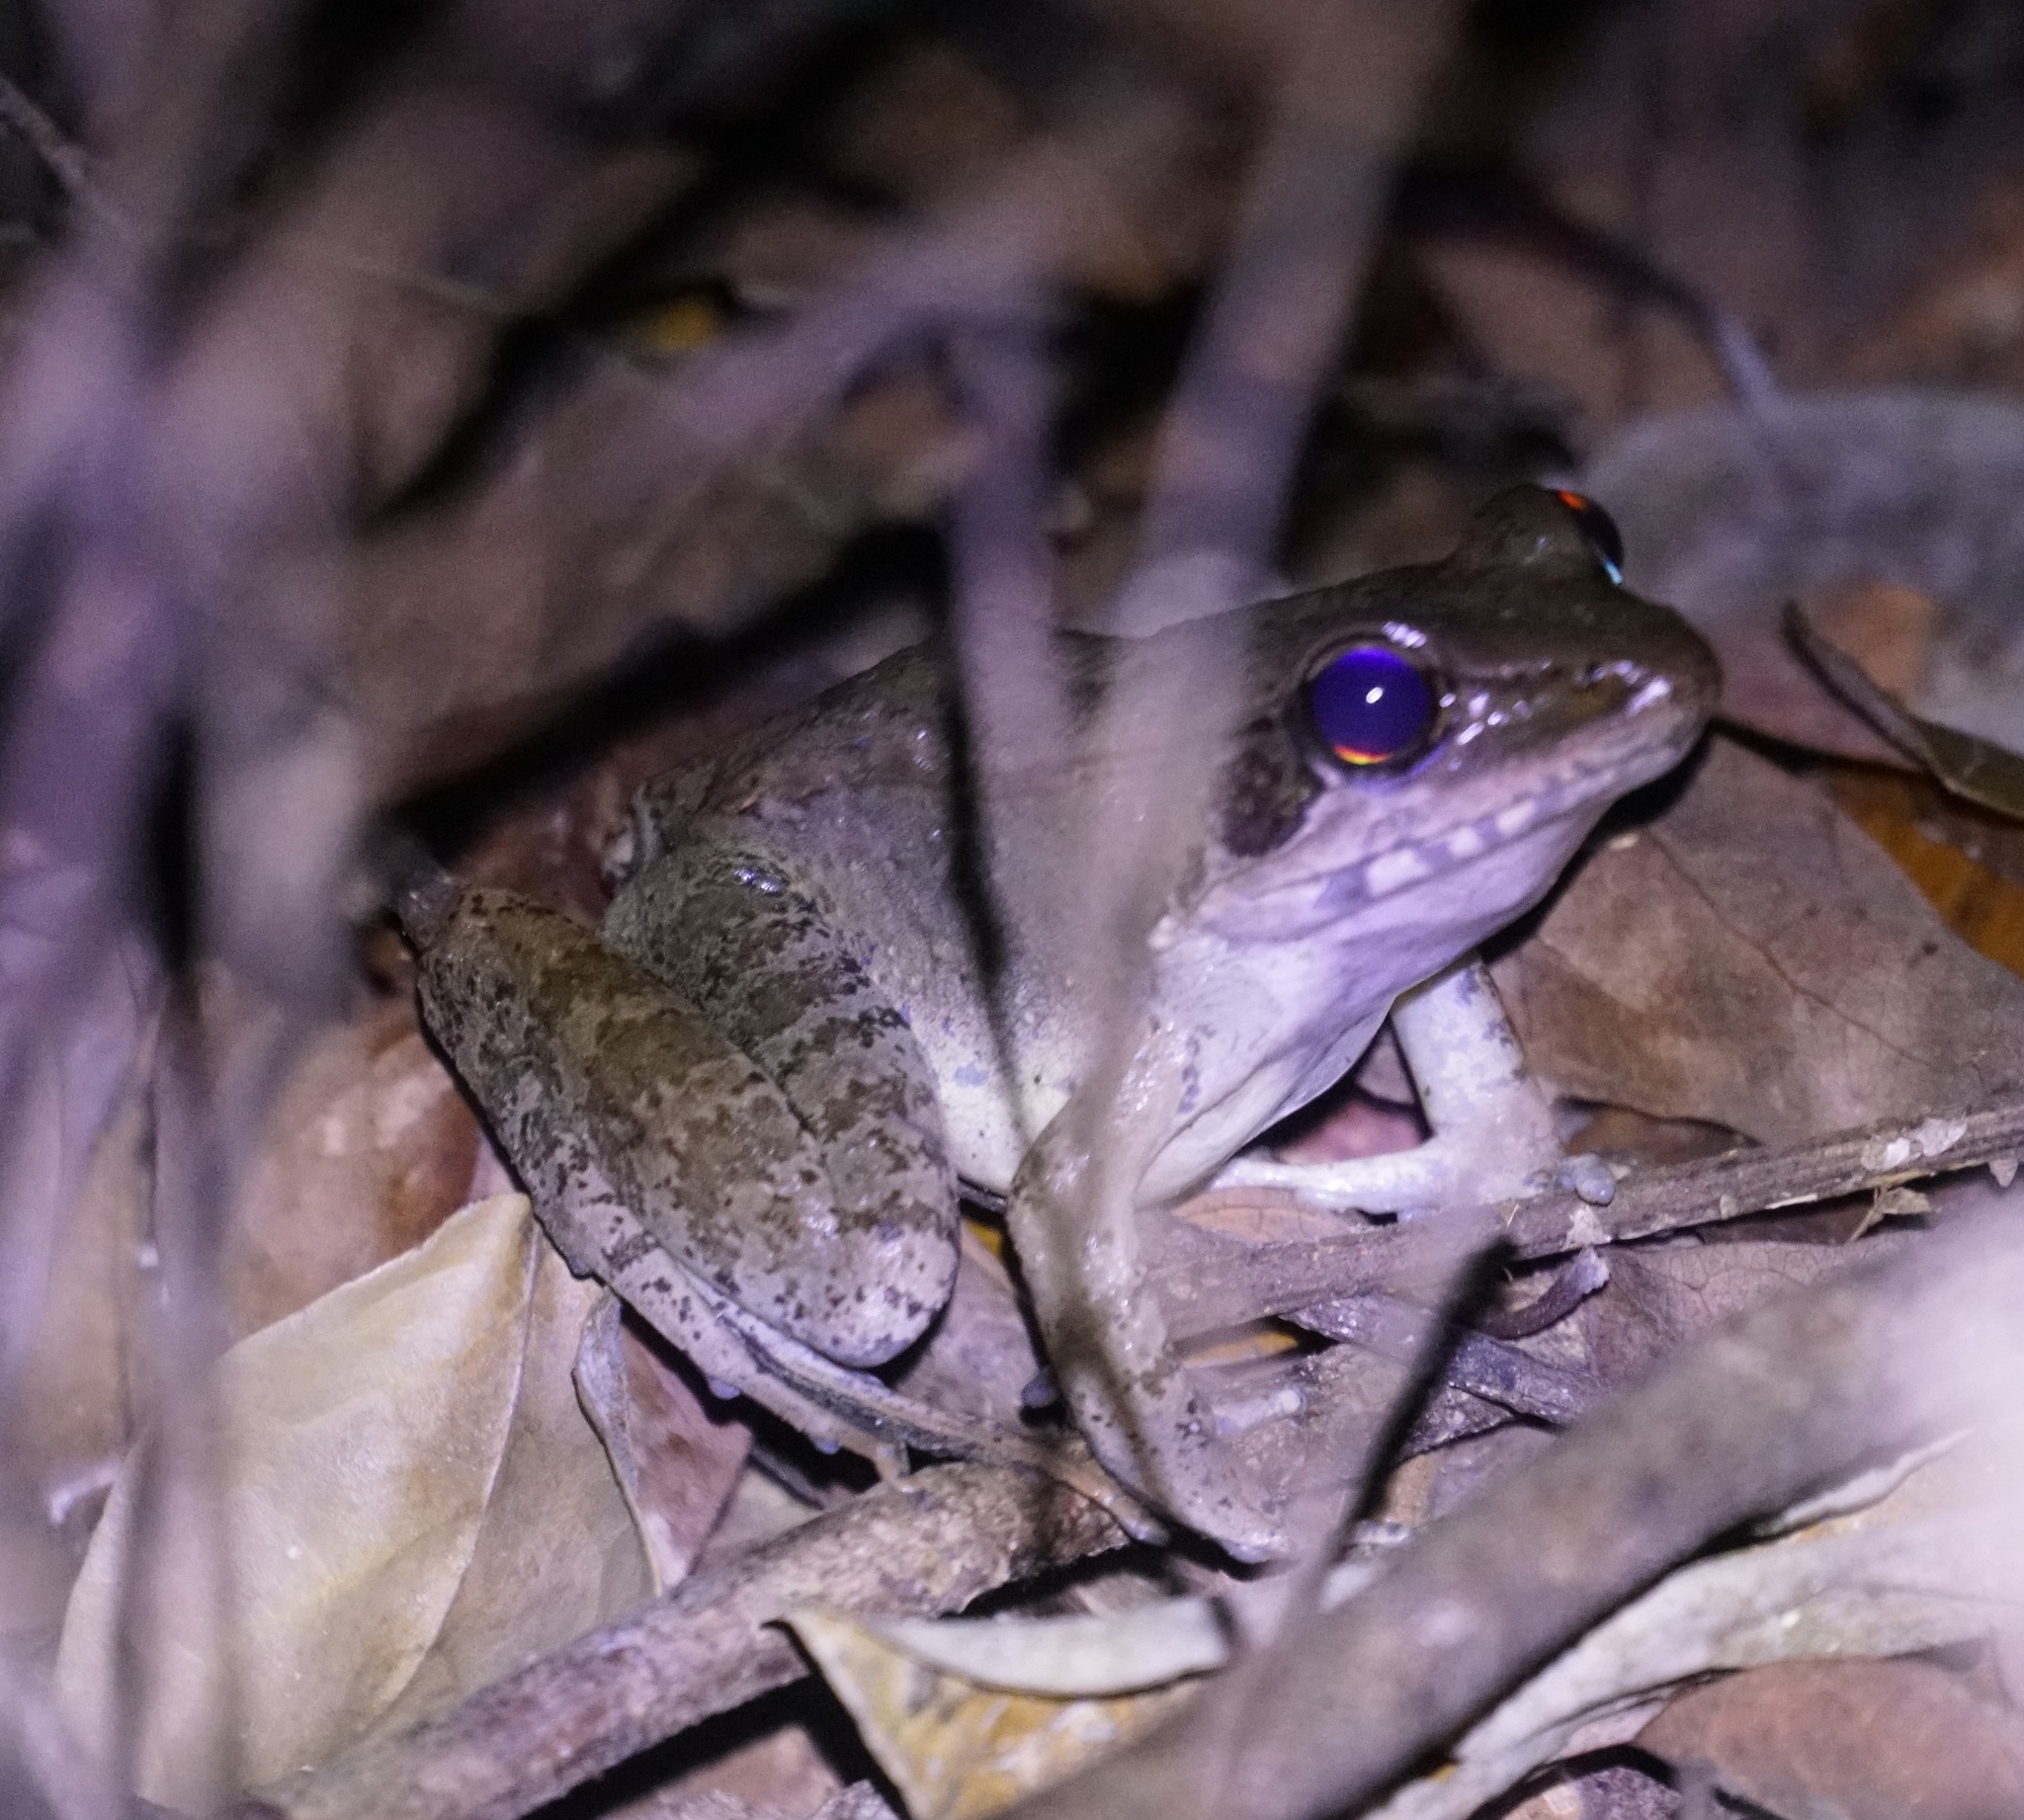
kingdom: Animalia
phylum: Chordata
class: Amphibia
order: Anura
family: Ranidae
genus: Papurana
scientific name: Papurana daemeli
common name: Arhem rana
